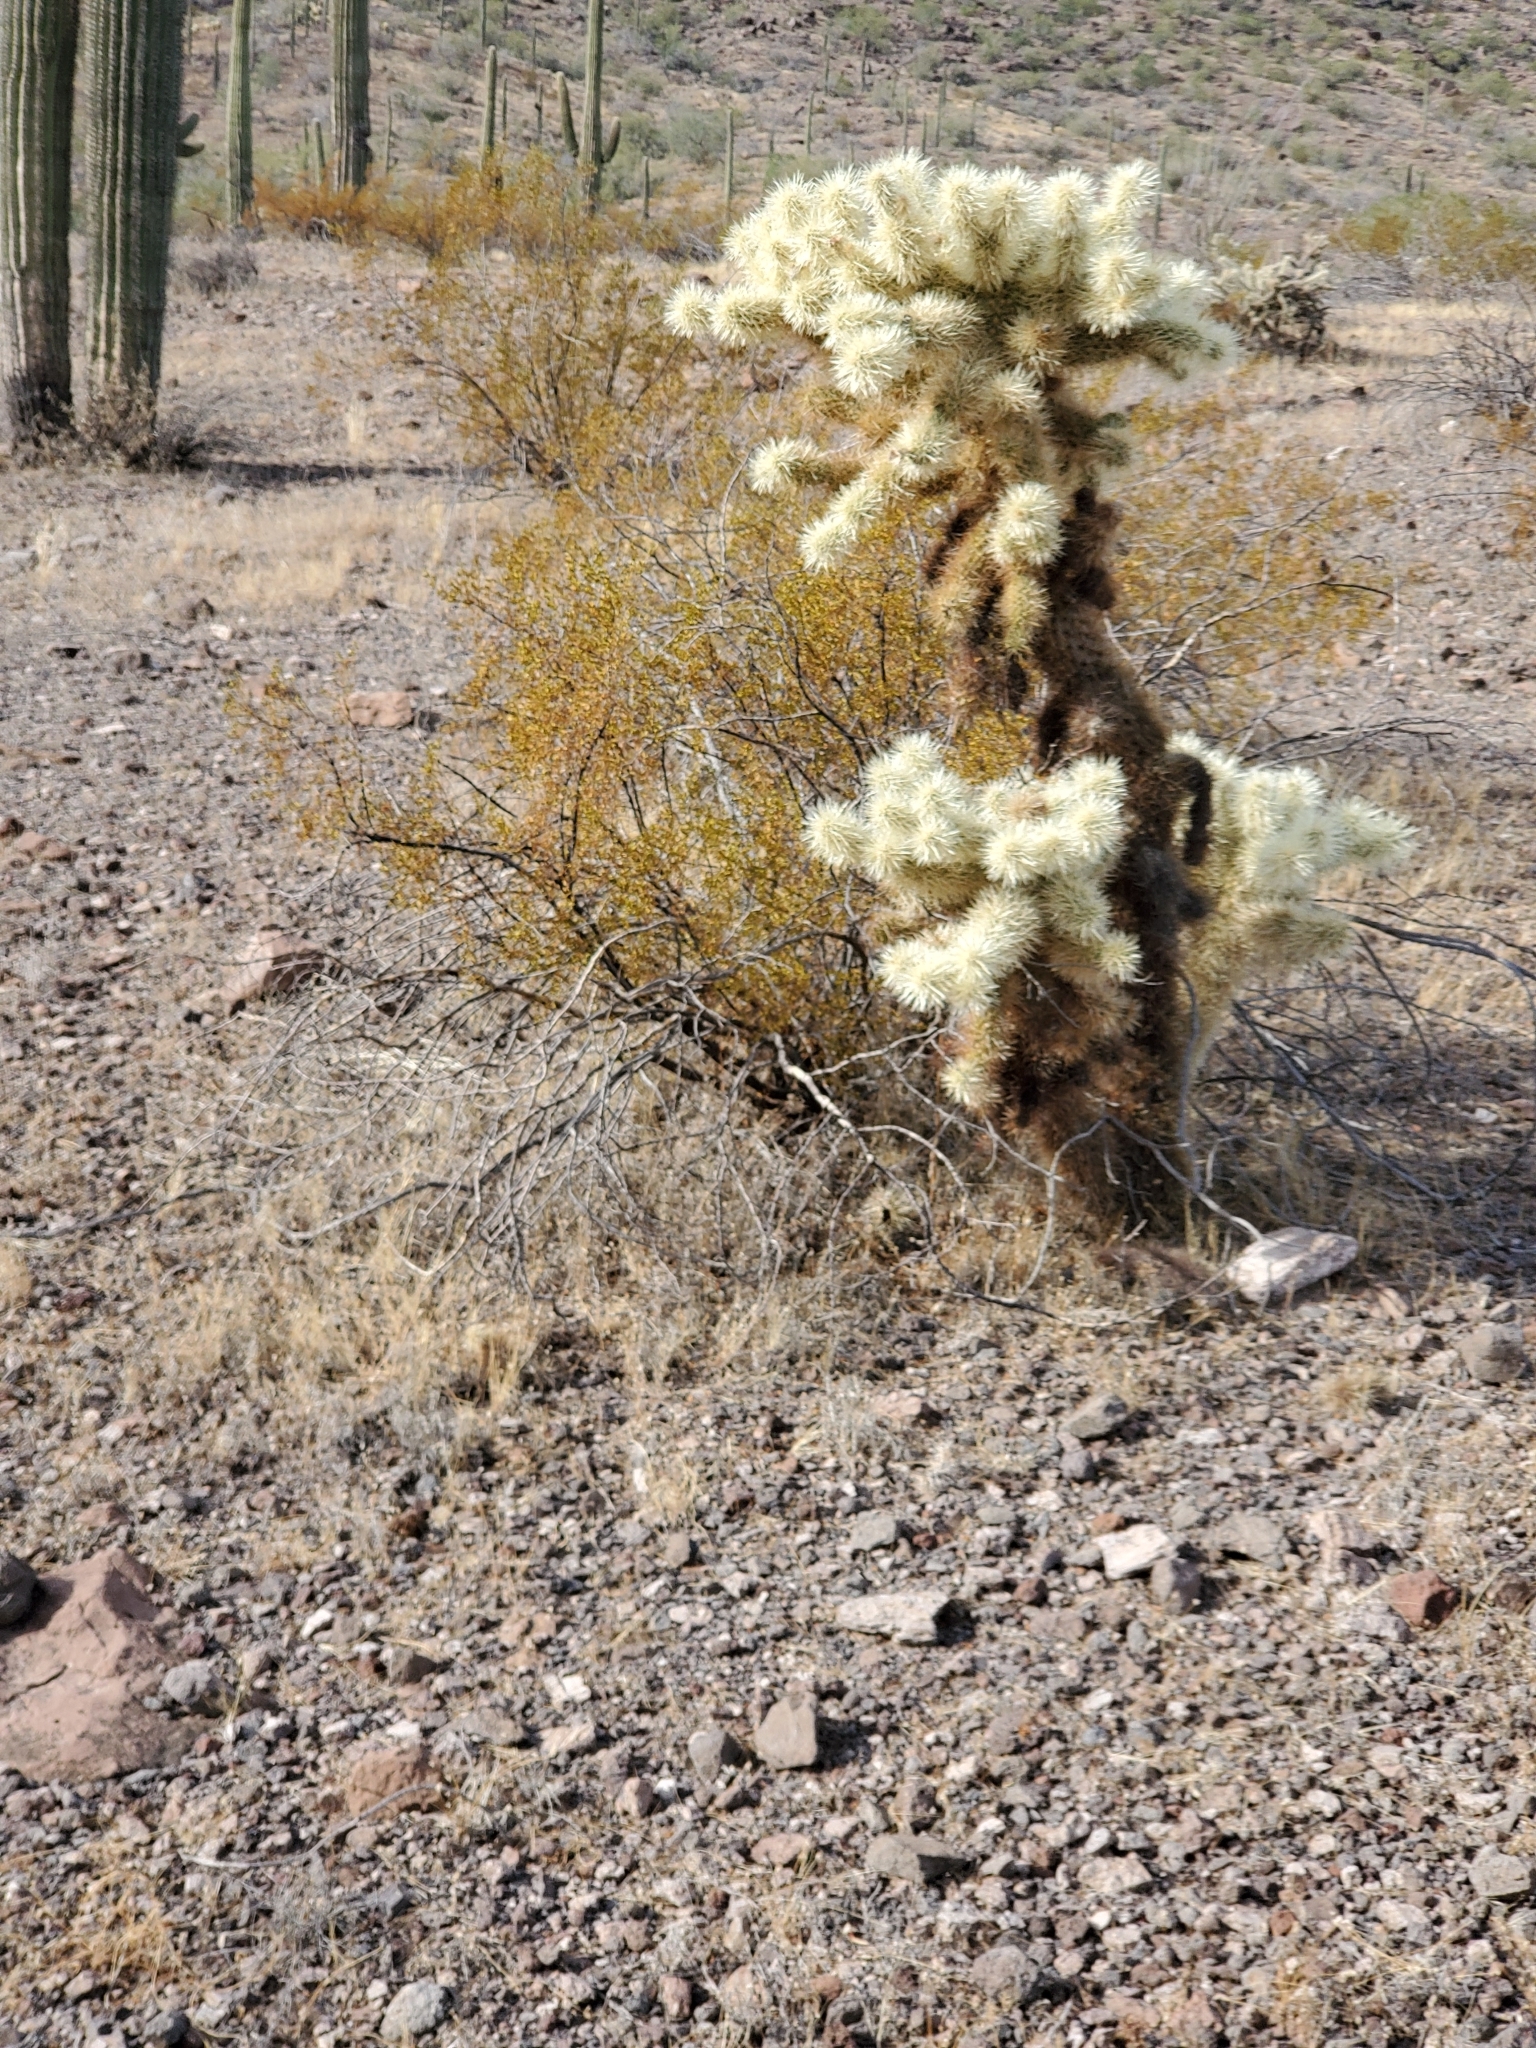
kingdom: Plantae
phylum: Tracheophyta
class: Magnoliopsida
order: Caryophyllales
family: Cactaceae
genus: Cylindropuntia
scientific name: Cylindropuntia fosbergii
